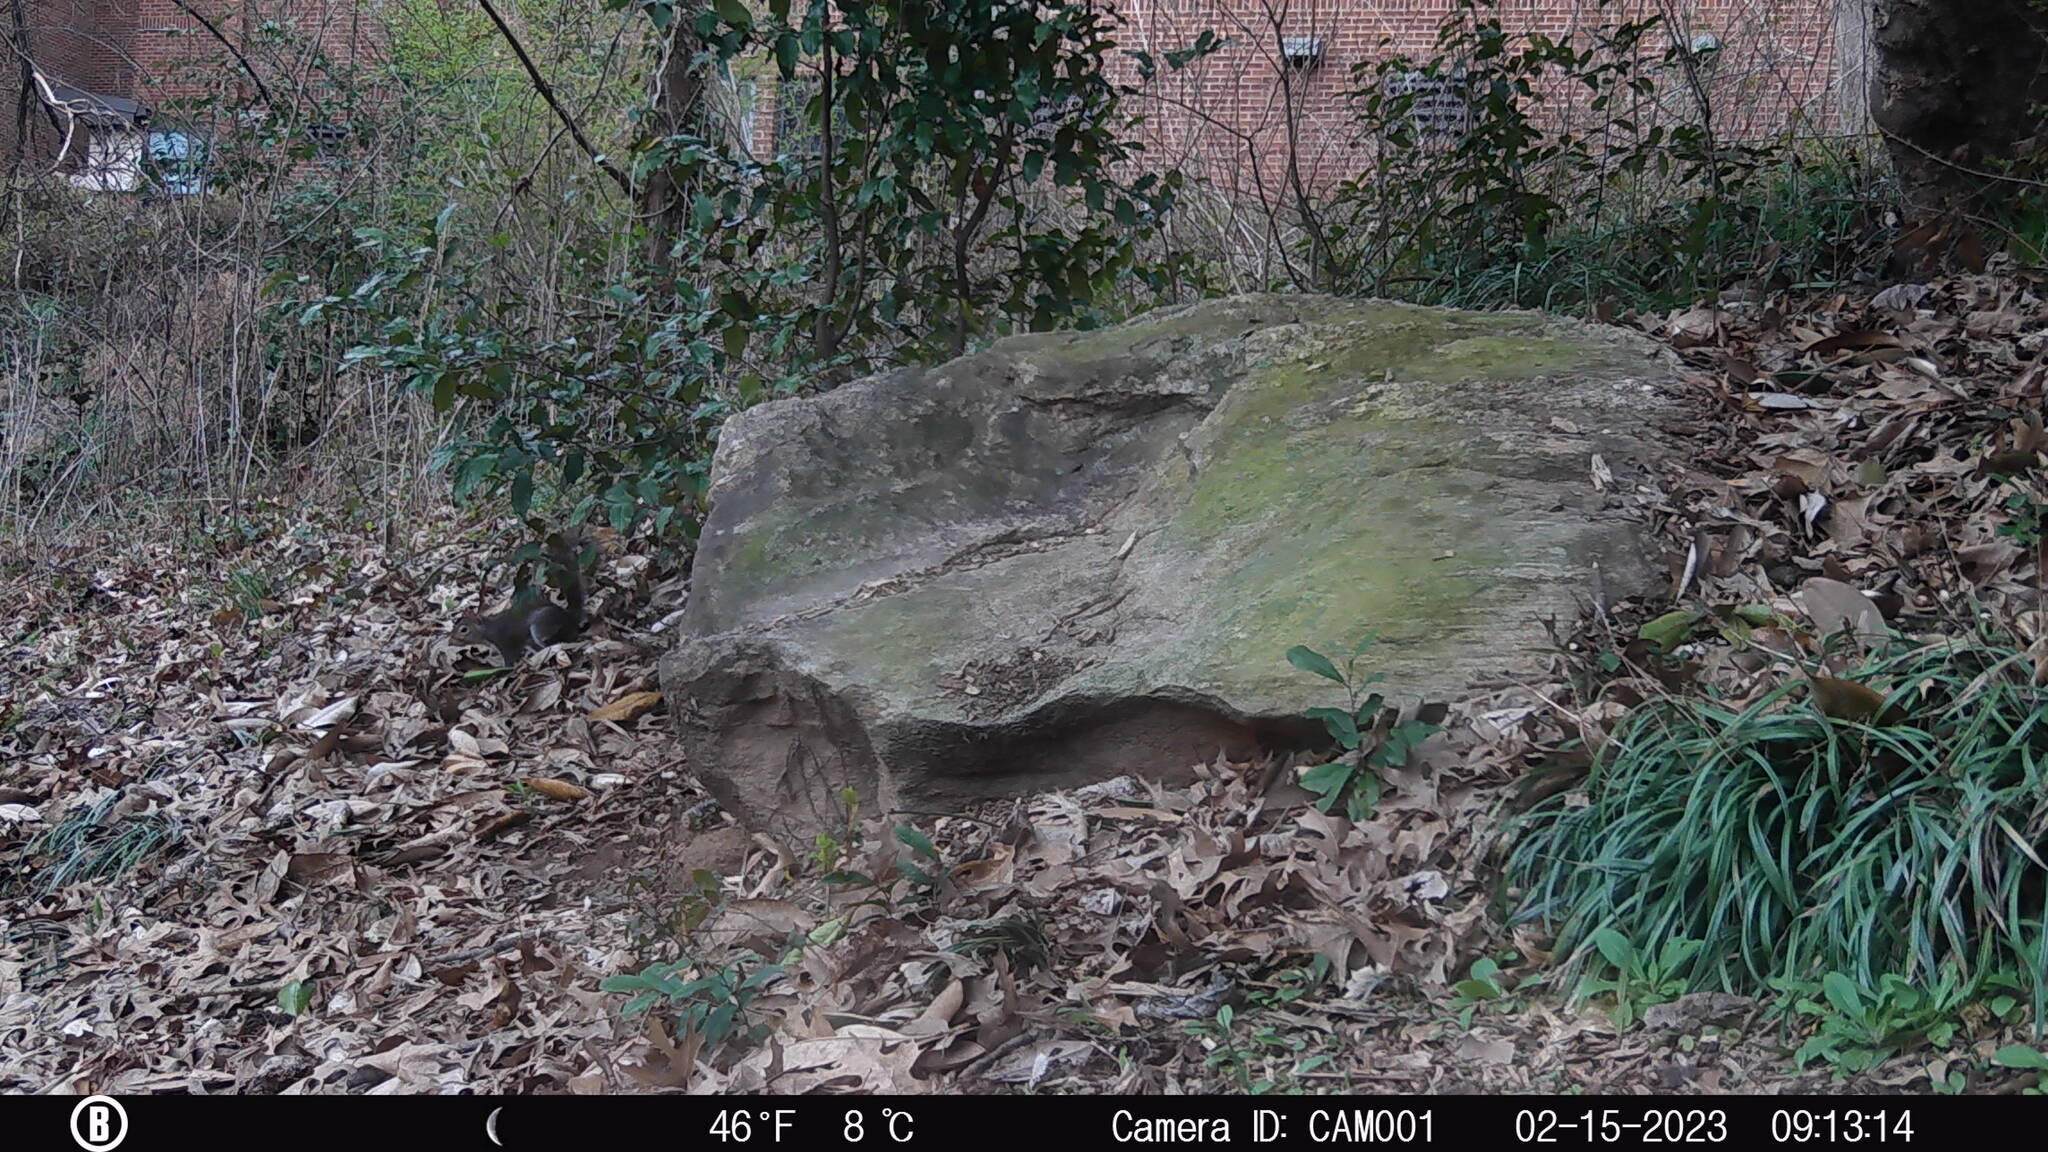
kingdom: Animalia
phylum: Chordata
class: Mammalia
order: Rodentia
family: Sciuridae
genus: Sciurus
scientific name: Sciurus carolinensis
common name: Eastern gray squirrel
